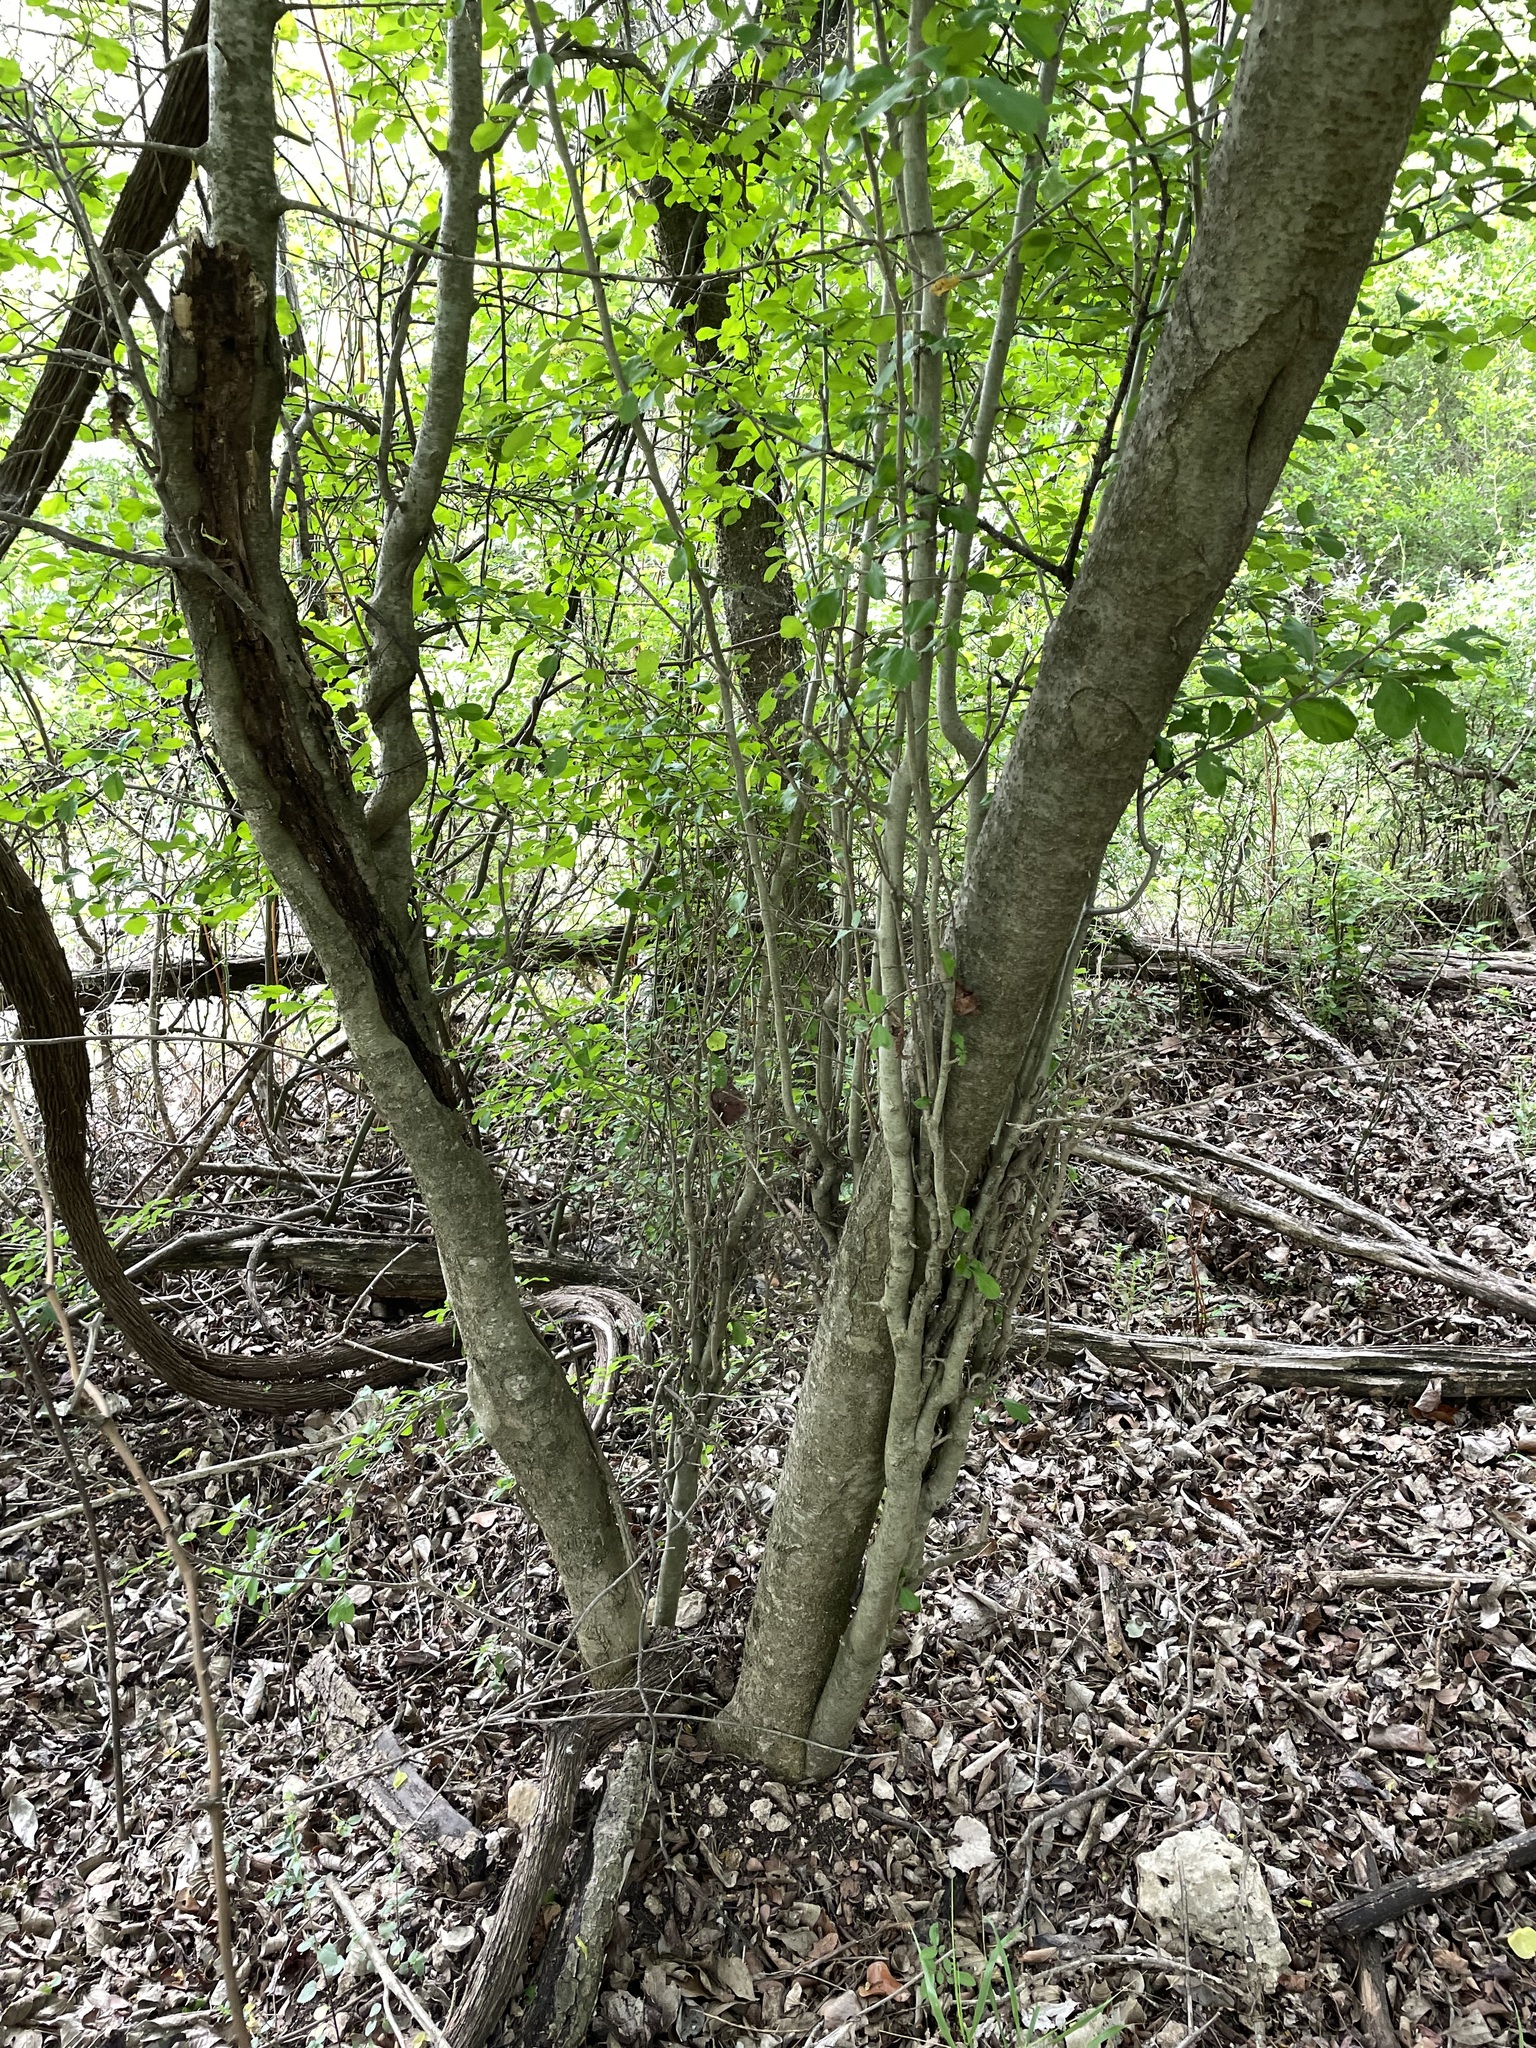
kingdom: Plantae
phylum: Tracheophyta
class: Magnoliopsida
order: Aquifoliales
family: Aquifoliaceae
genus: Ilex
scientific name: Ilex decidua
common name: Possum-haw
